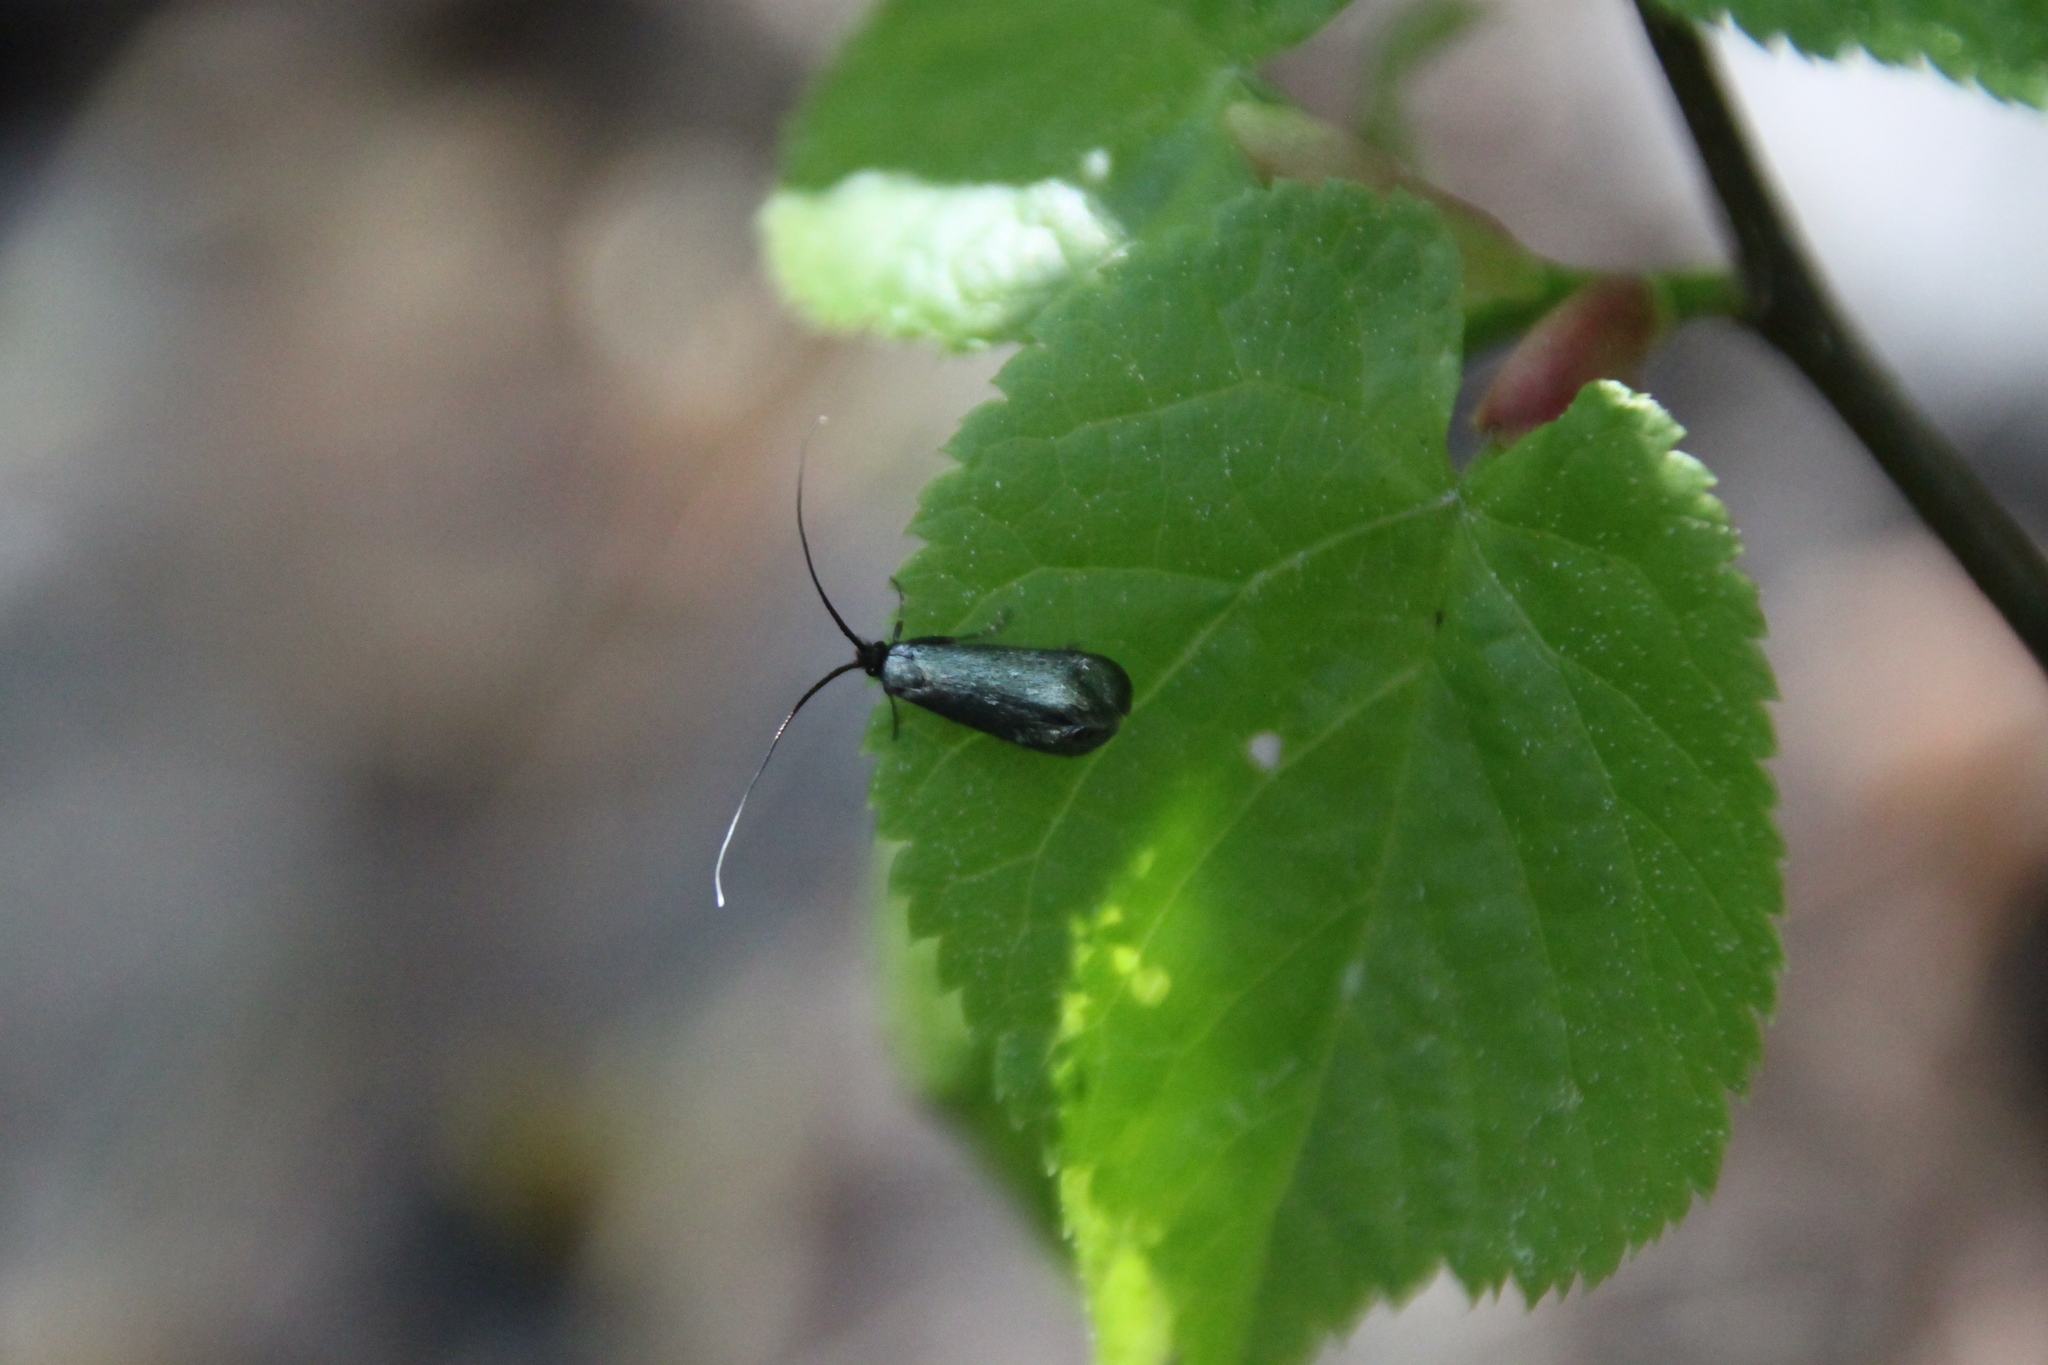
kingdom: Animalia
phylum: Arthropoda
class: Insecta
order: Lepidoptera
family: Adelidae
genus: Adela
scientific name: Adela viridella
